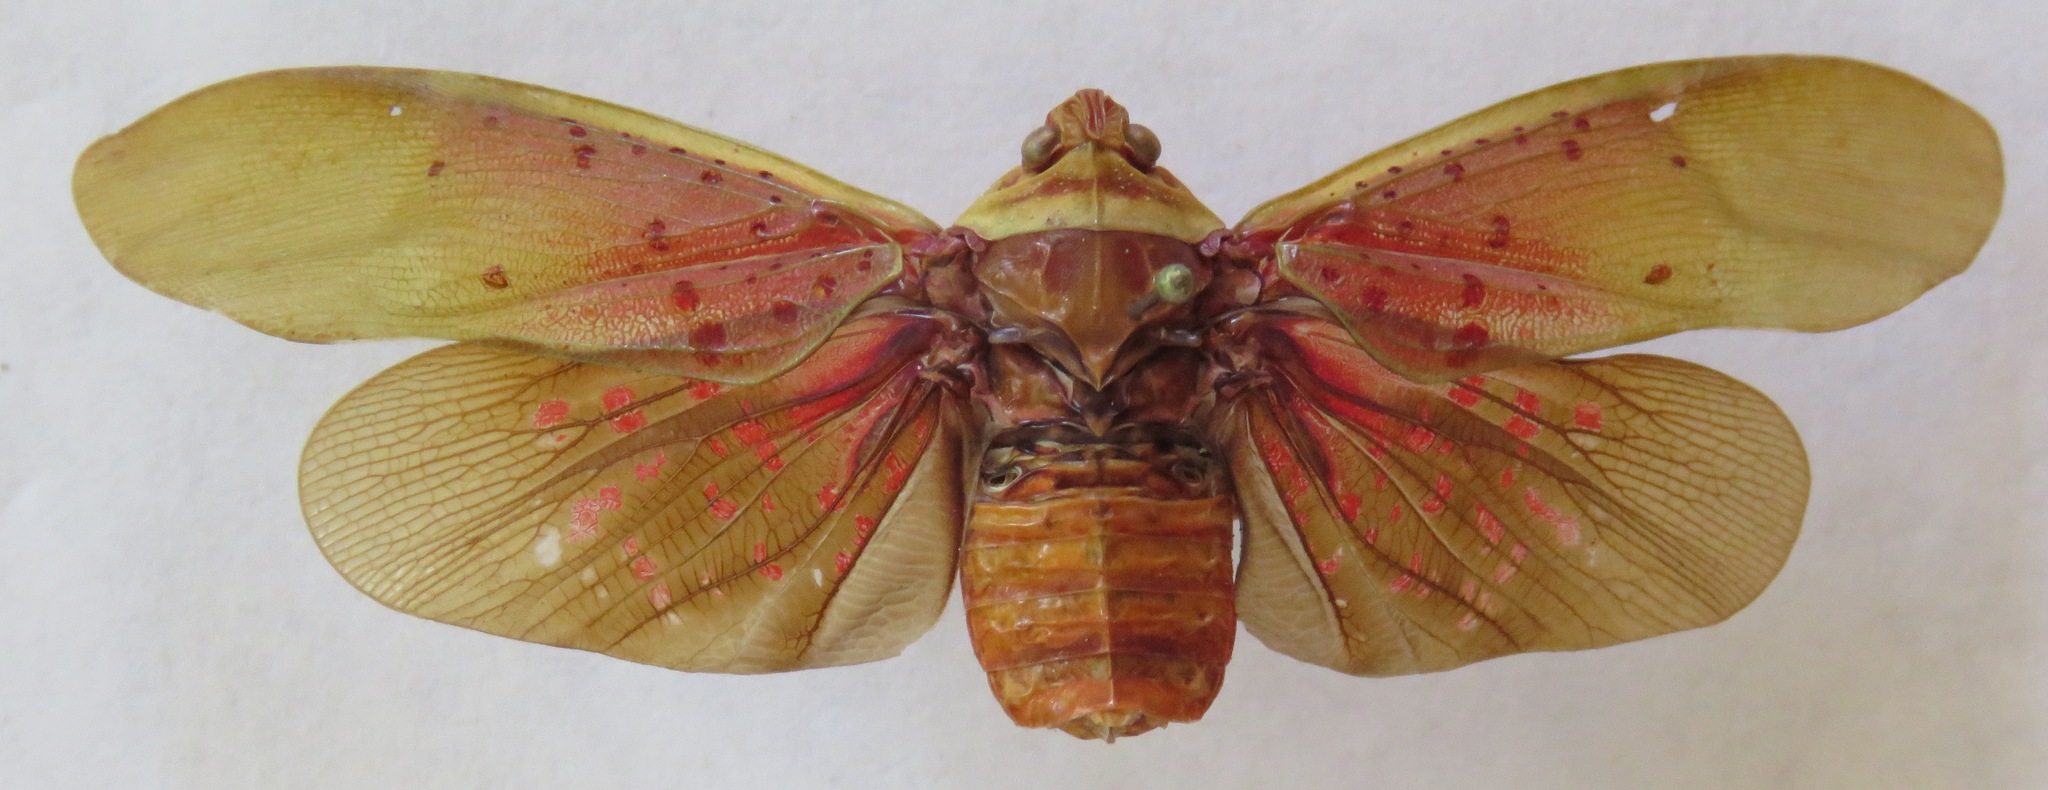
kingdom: Animalia
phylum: Arthropoda
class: Insecta
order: Hemiptera
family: Fulgoridae
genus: Copidocephala
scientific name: Copidocephala guttata
